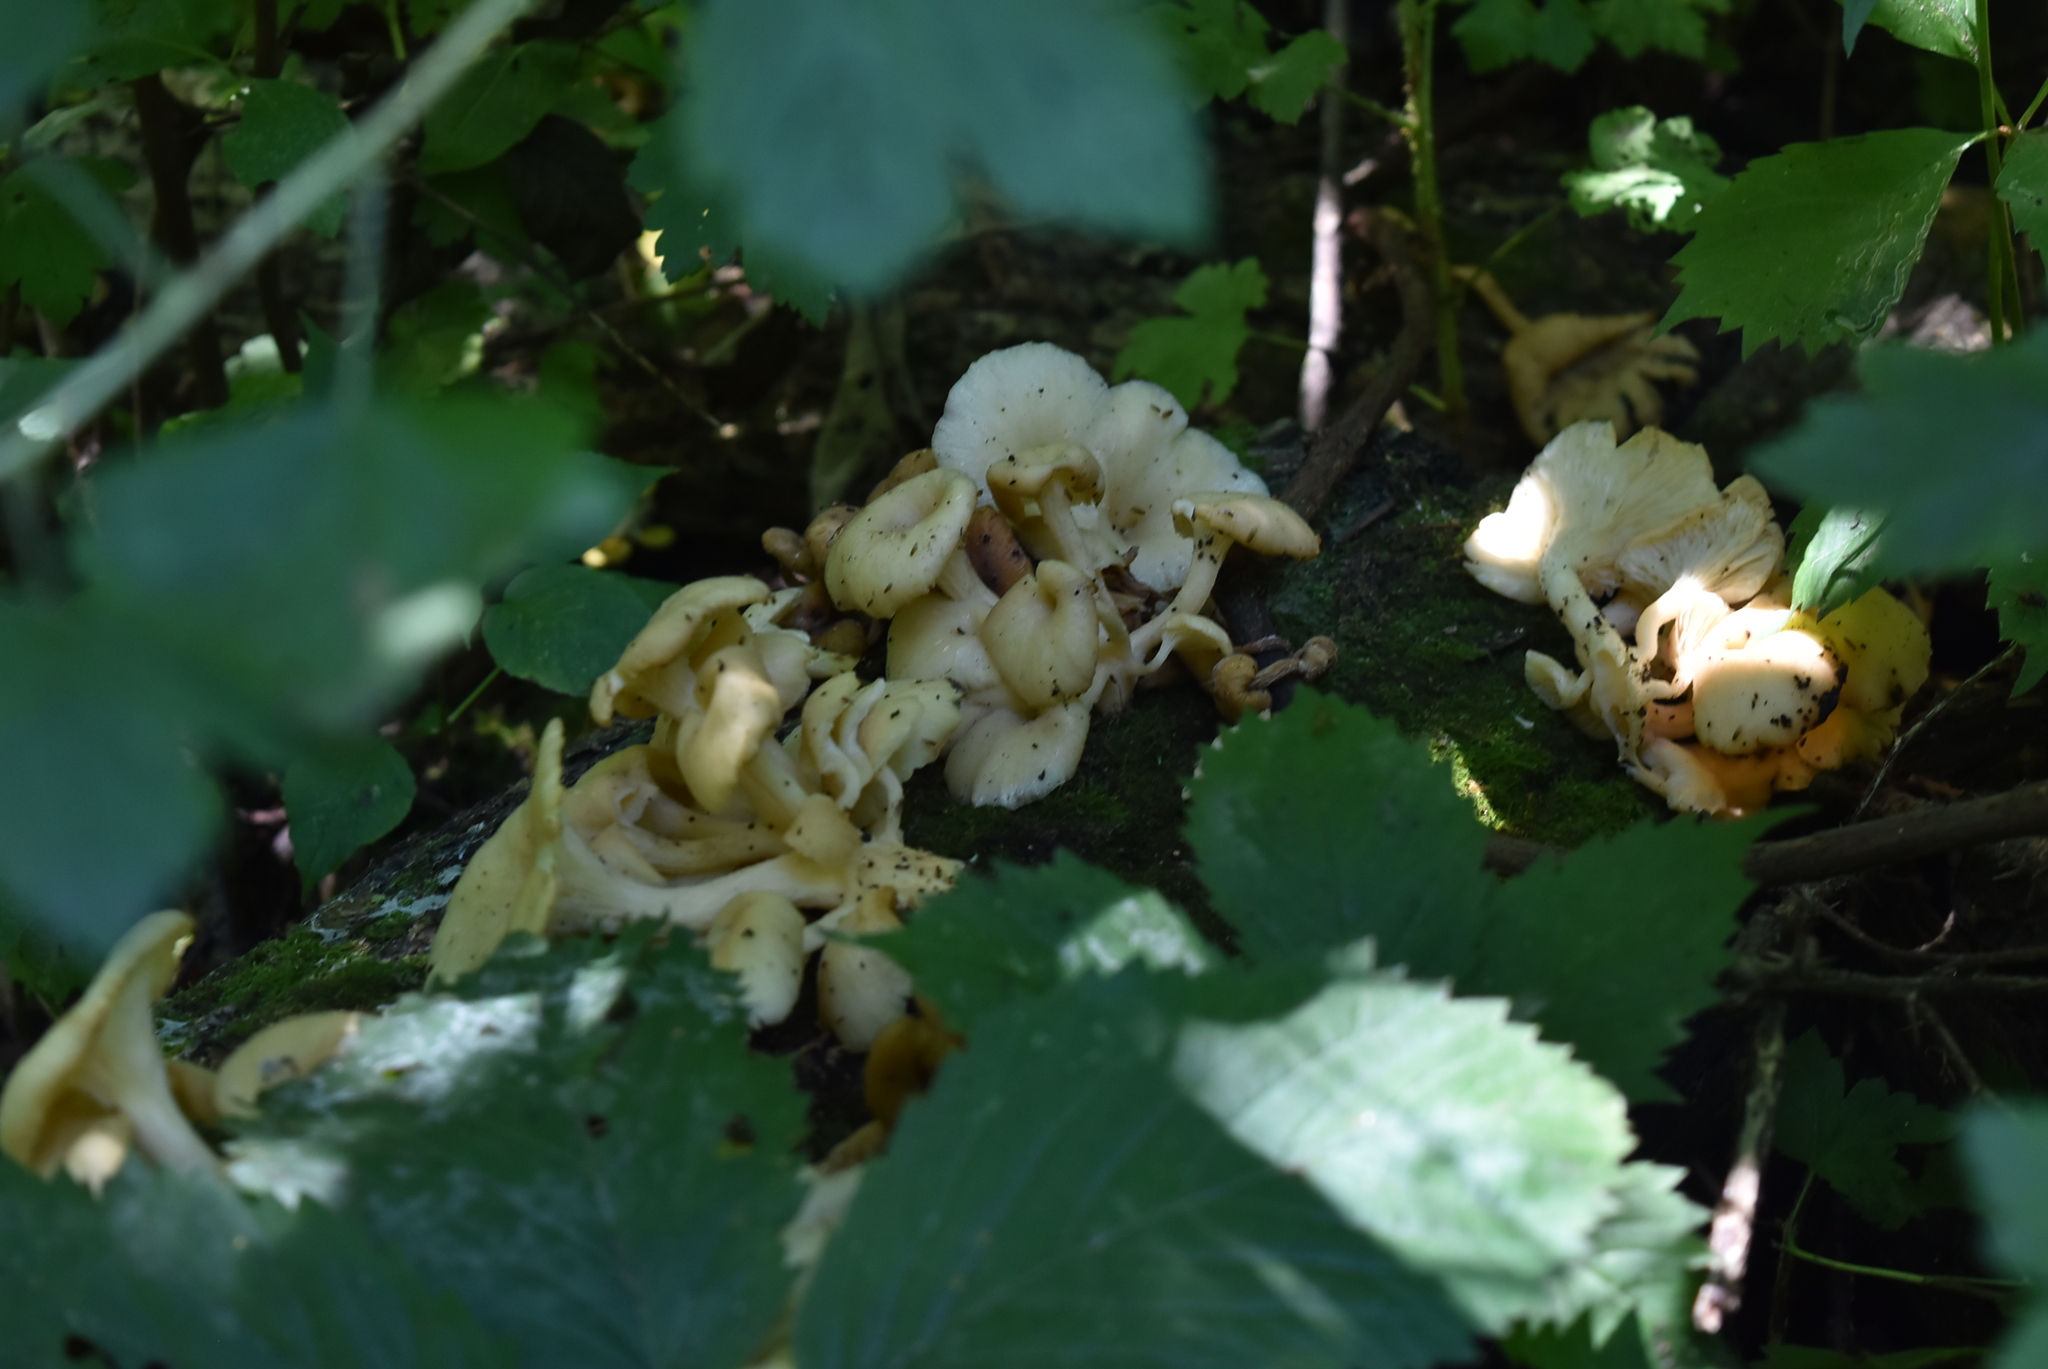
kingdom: Fungi
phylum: Basidiomycota
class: Agaricomycetes
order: Agaricales
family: Pleurotaceae
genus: Pleurotus
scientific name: Pleurotus citrinopileatus
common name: Golden oyster mushroom
